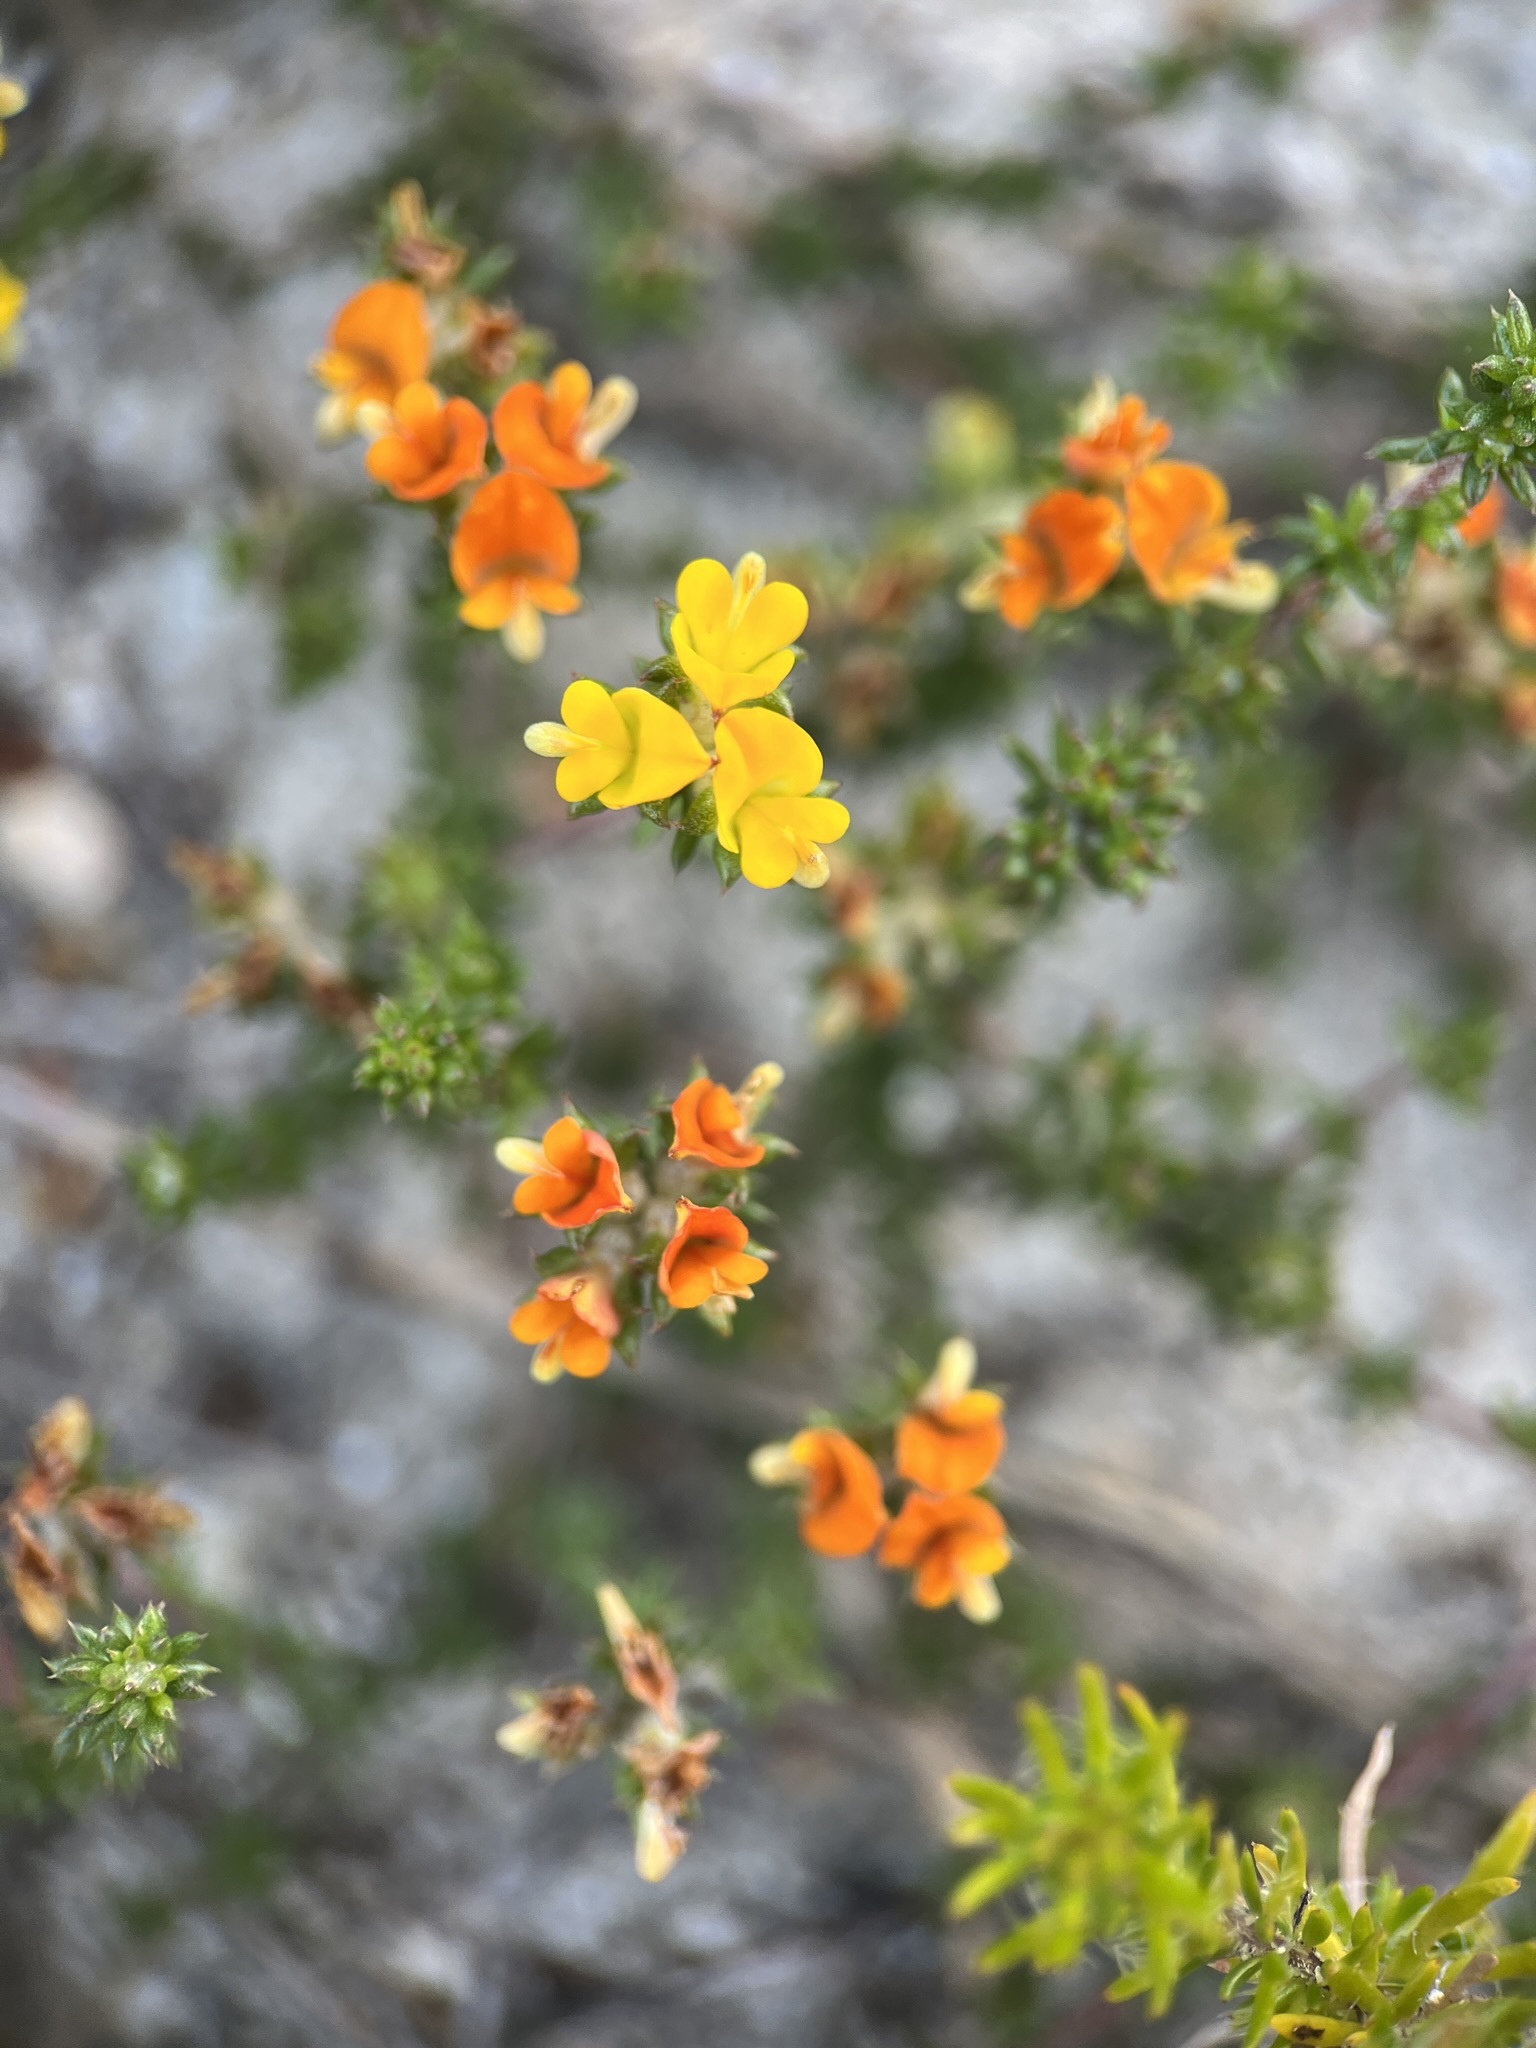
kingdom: Plantae
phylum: Tracheophyta
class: Magnoliopsida
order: Fabales
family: Fabaceae
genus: Aspalathus
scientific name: Aspalathus crassisepala
